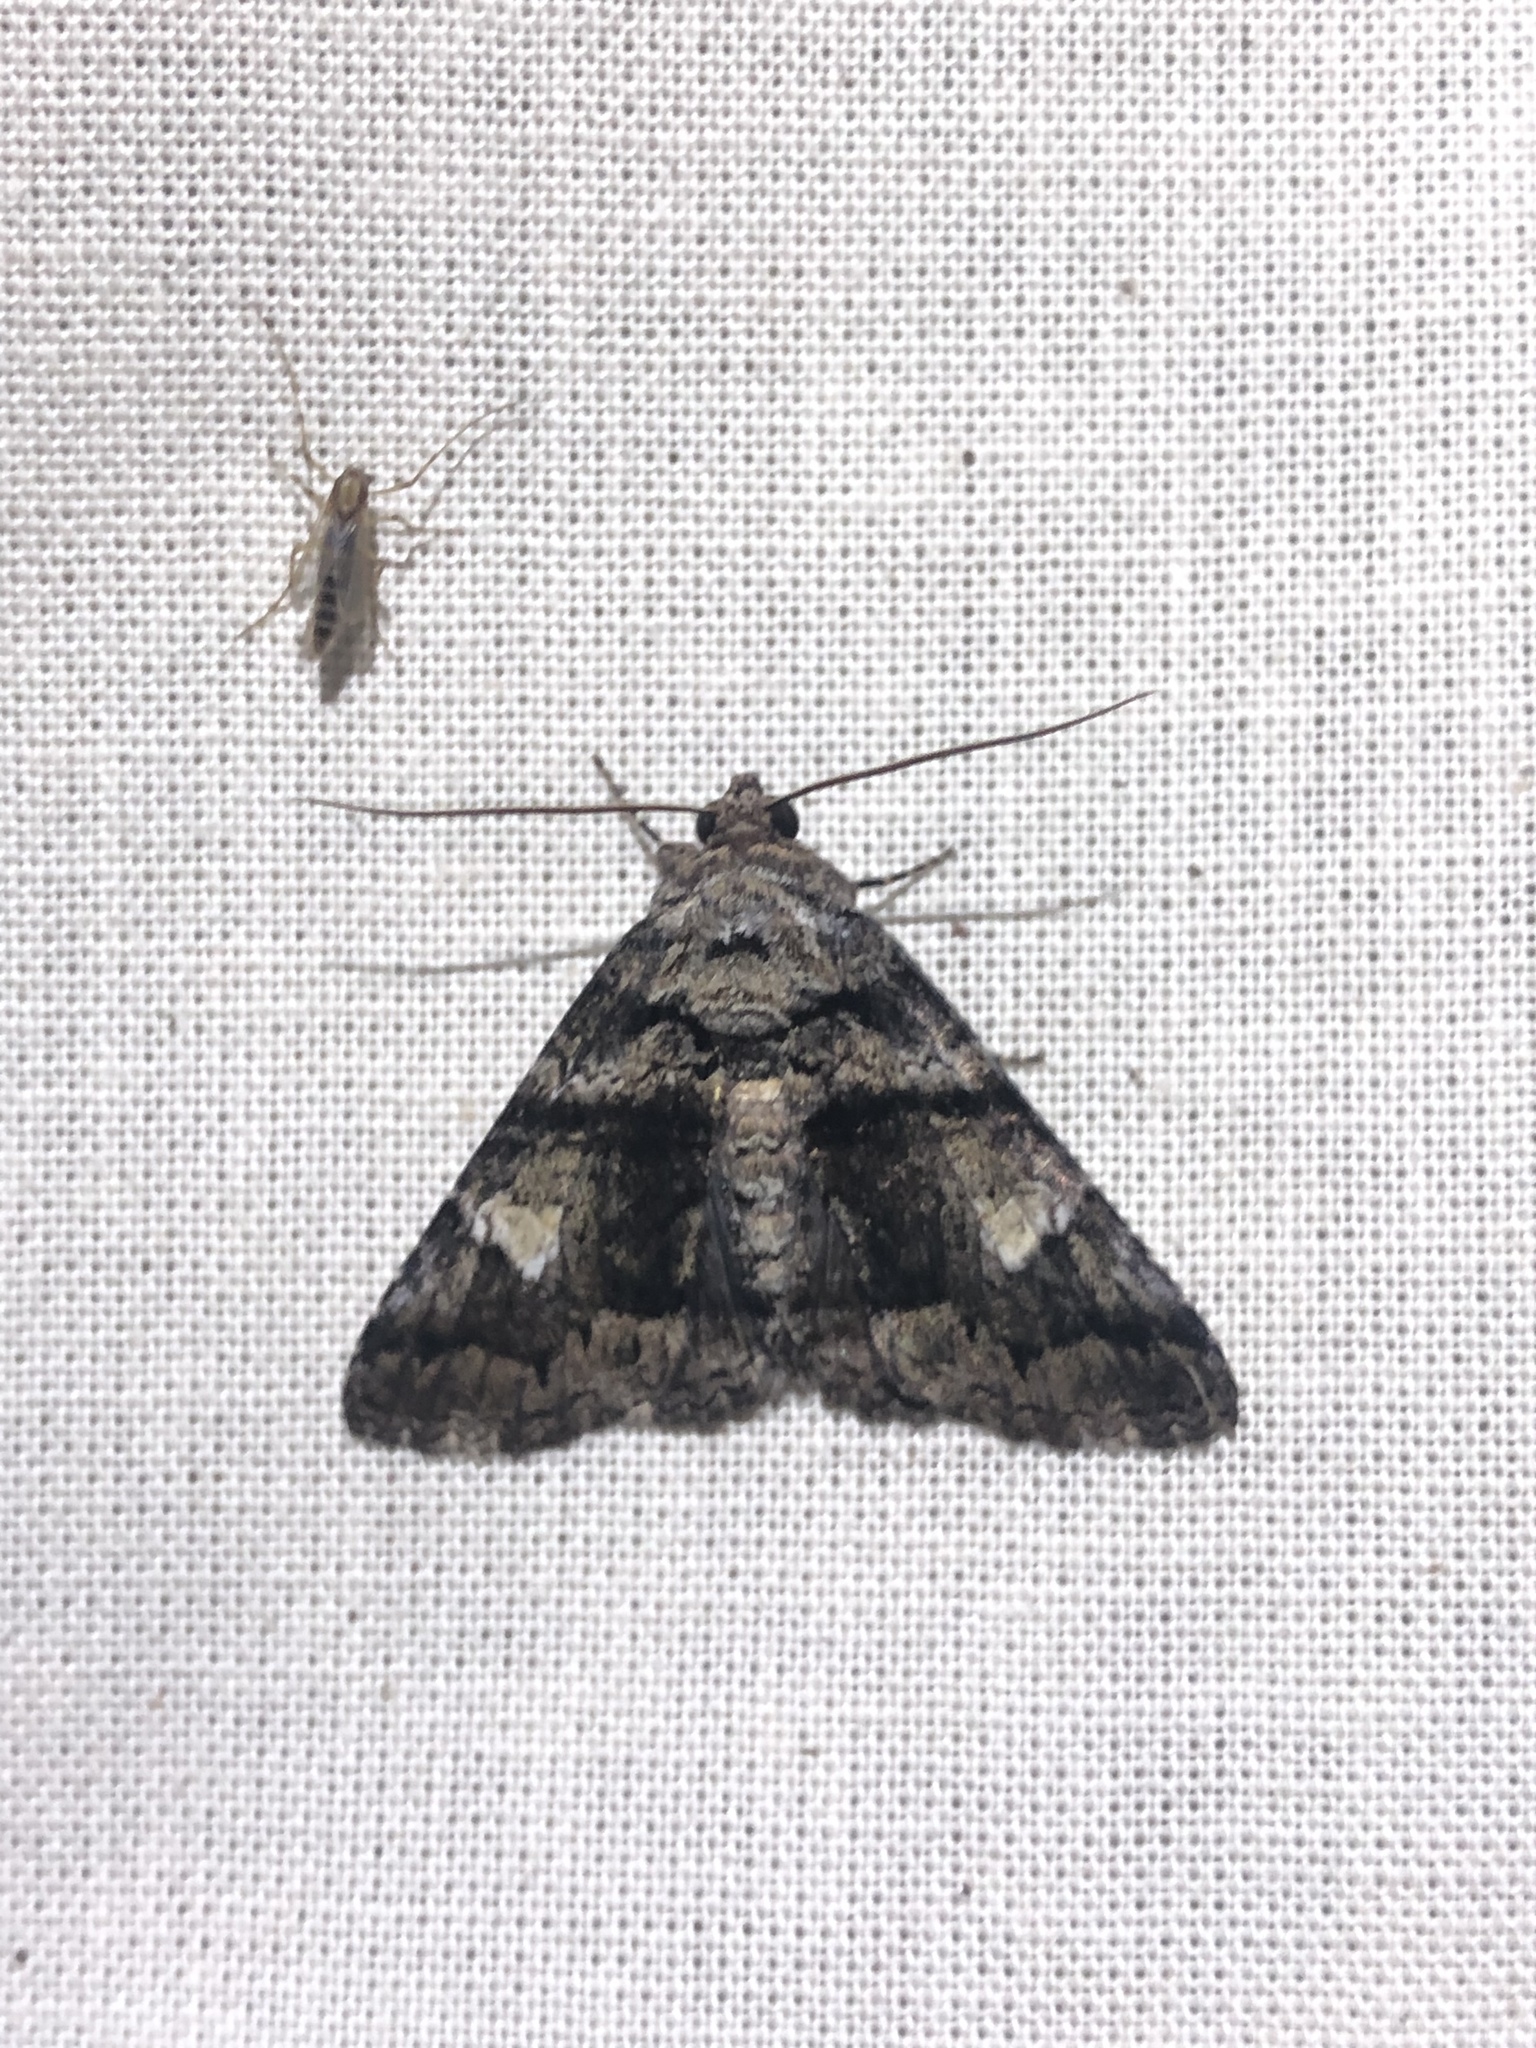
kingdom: Animalia
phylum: Arthropoda
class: Insecta
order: Lepidoptera
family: Erebidae
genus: Metria
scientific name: Metria amella
